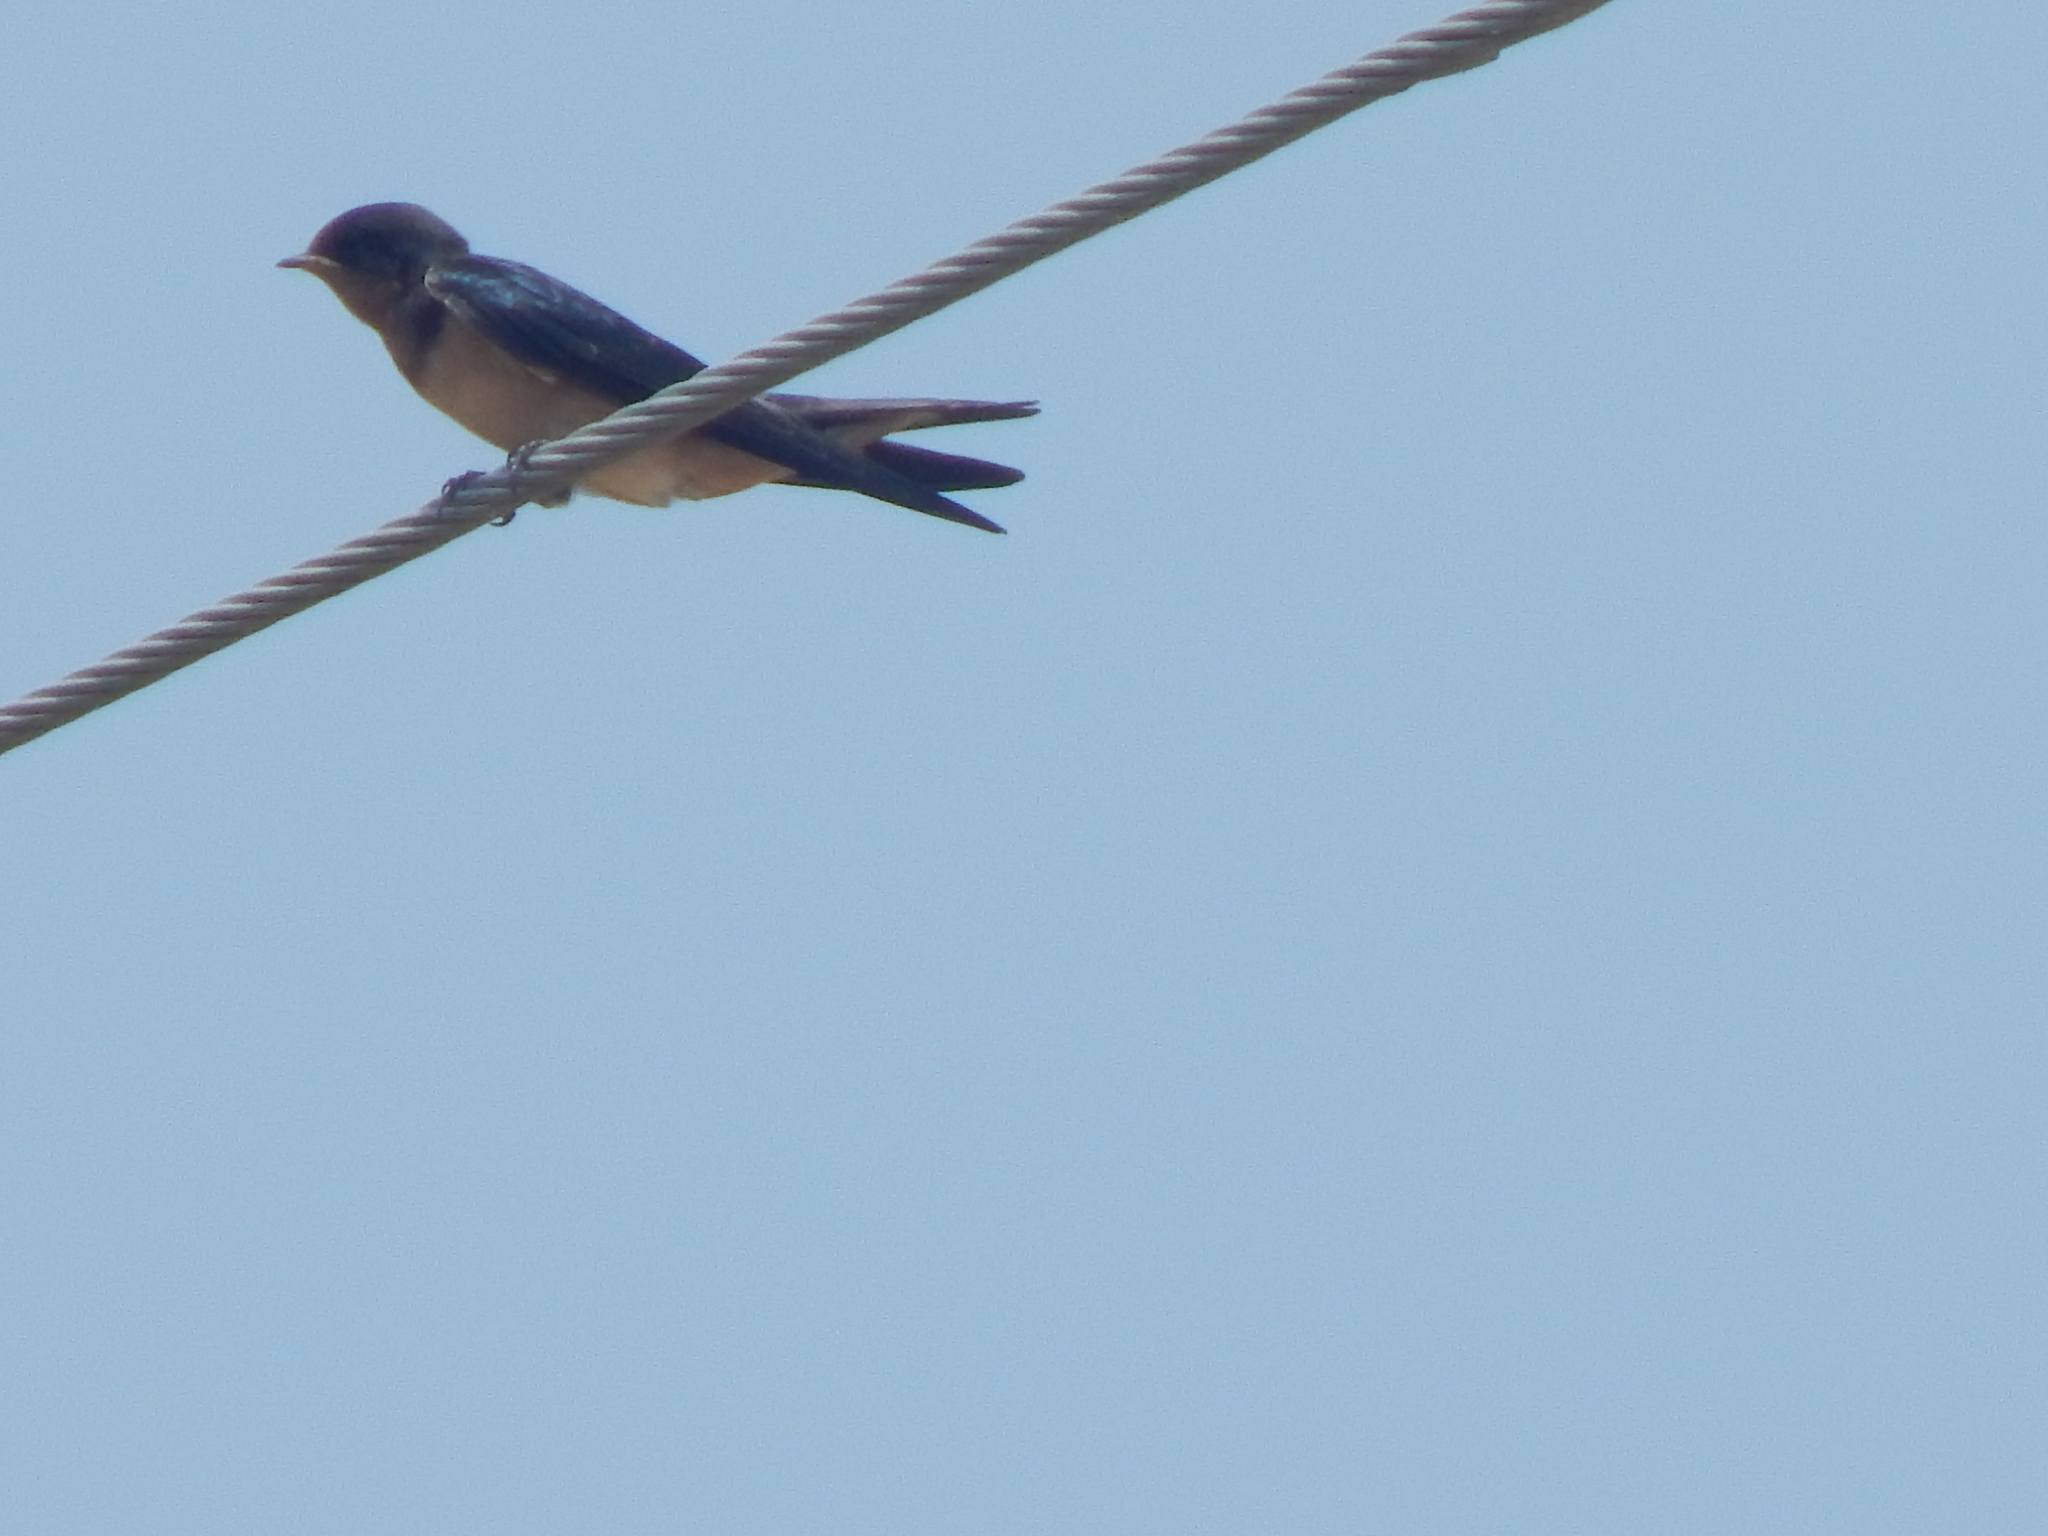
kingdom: Animalia
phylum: Chordata
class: Aves
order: Passeriformes
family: Hirundinidae
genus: Hirundo
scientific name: Hirundo rustica
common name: Barn swallow
